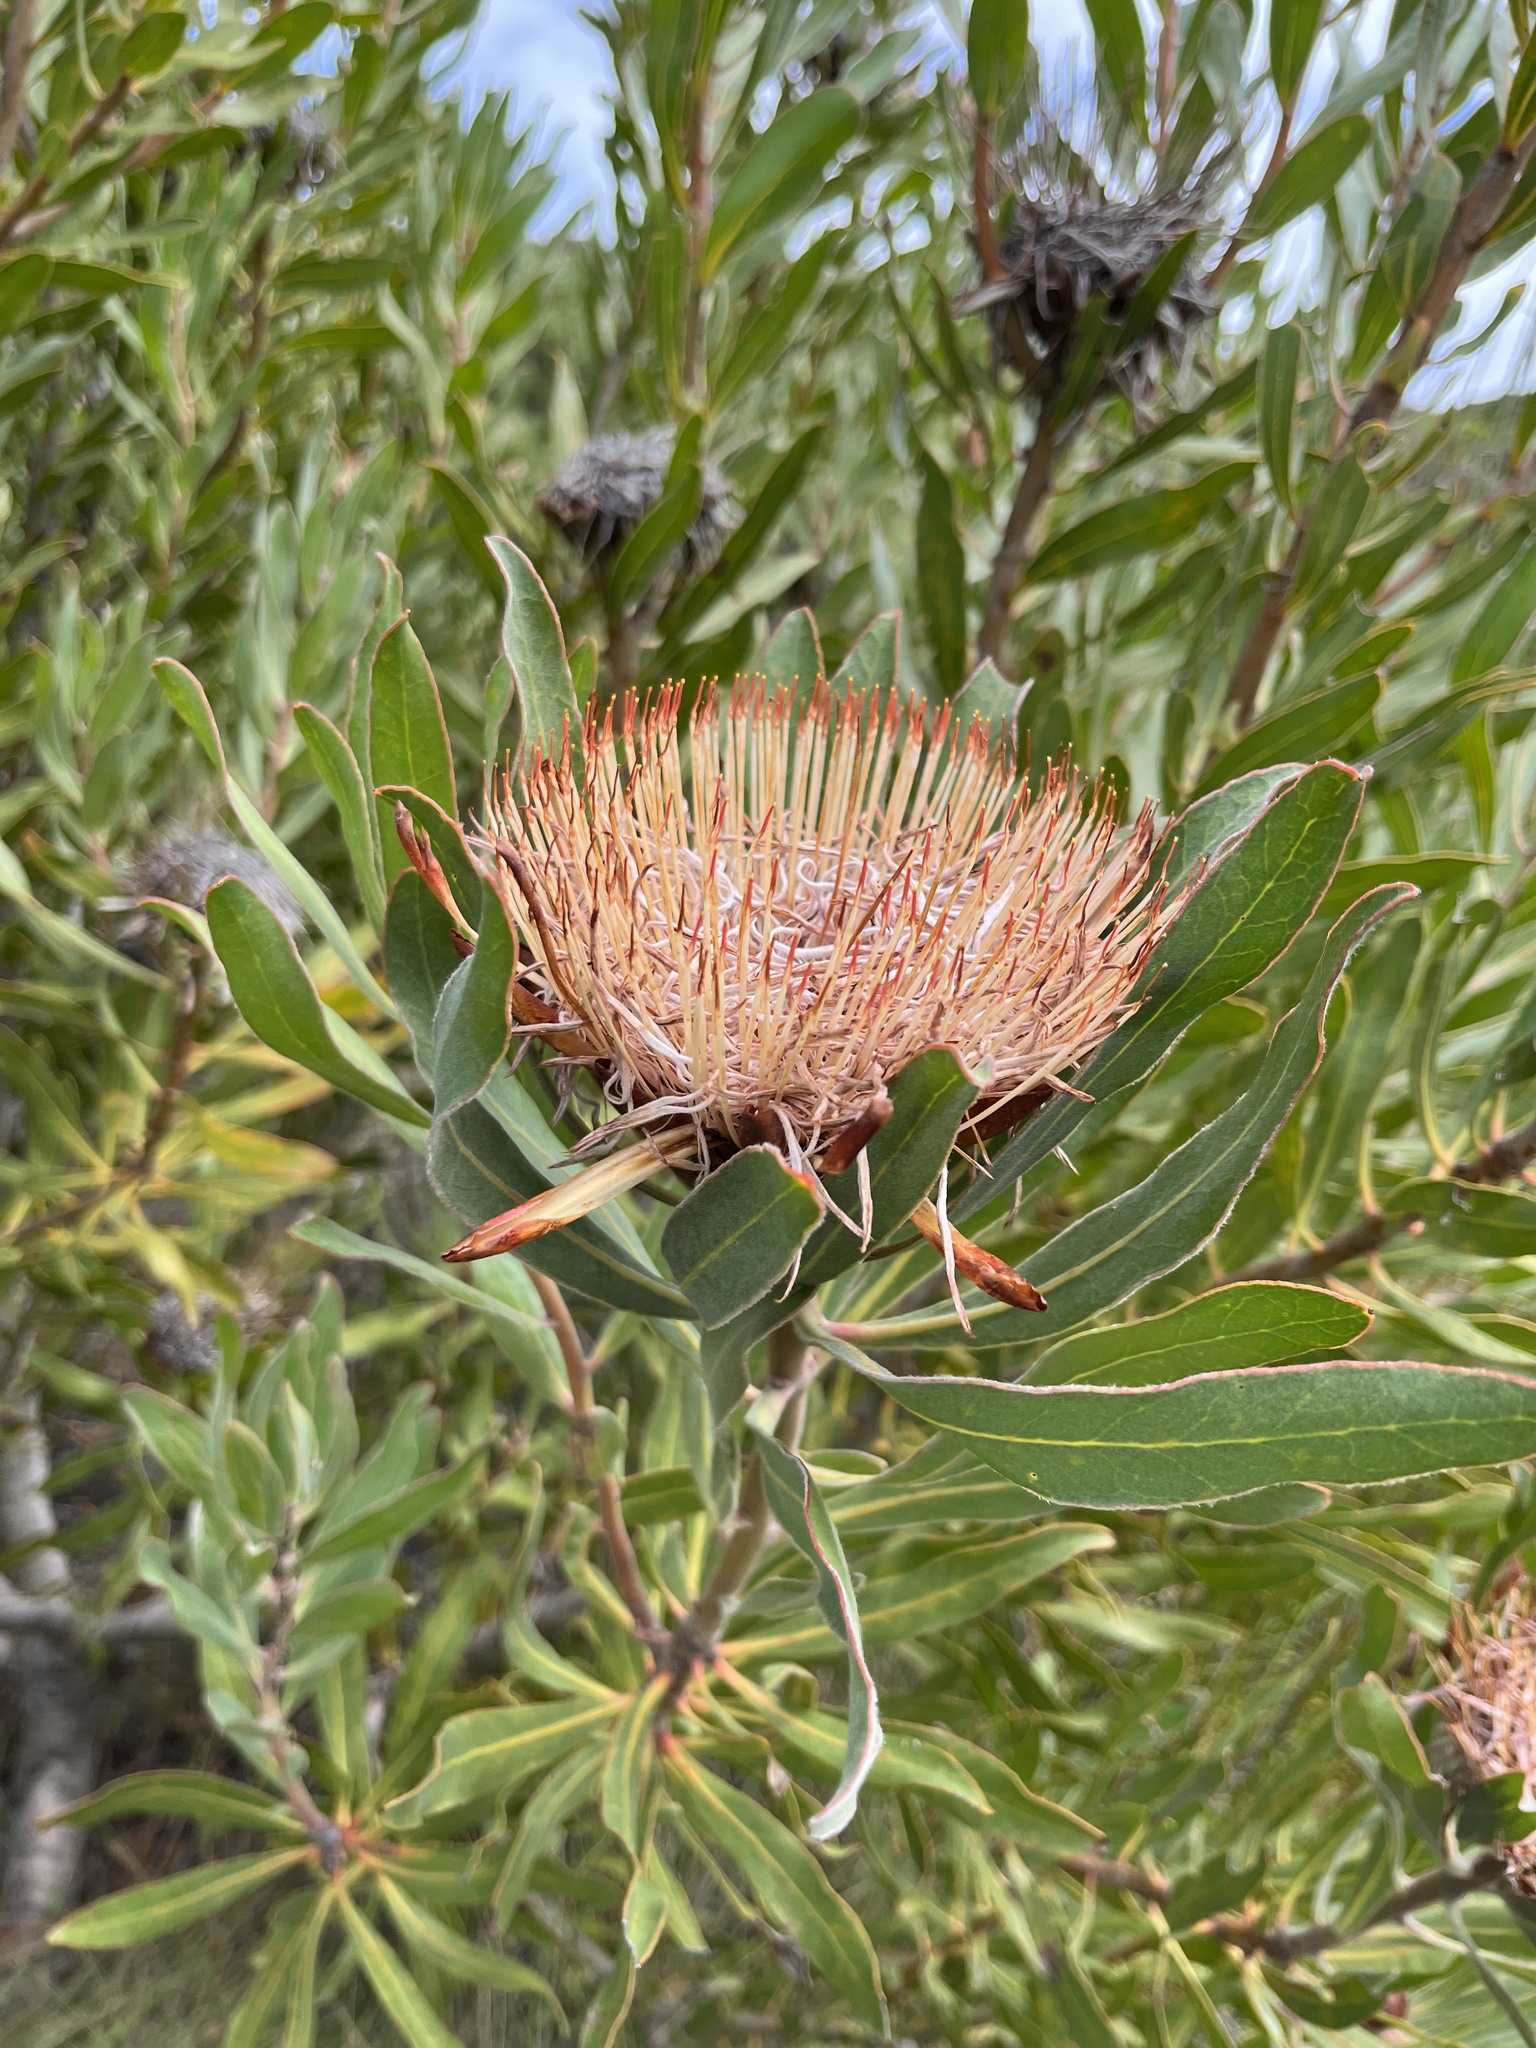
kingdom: Plantae
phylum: Tracheophyta
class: Magnoliopsida
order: Proteales
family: Proteaceae
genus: Protea
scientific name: Protea susannae
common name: Foetid-leaf sugarbush
